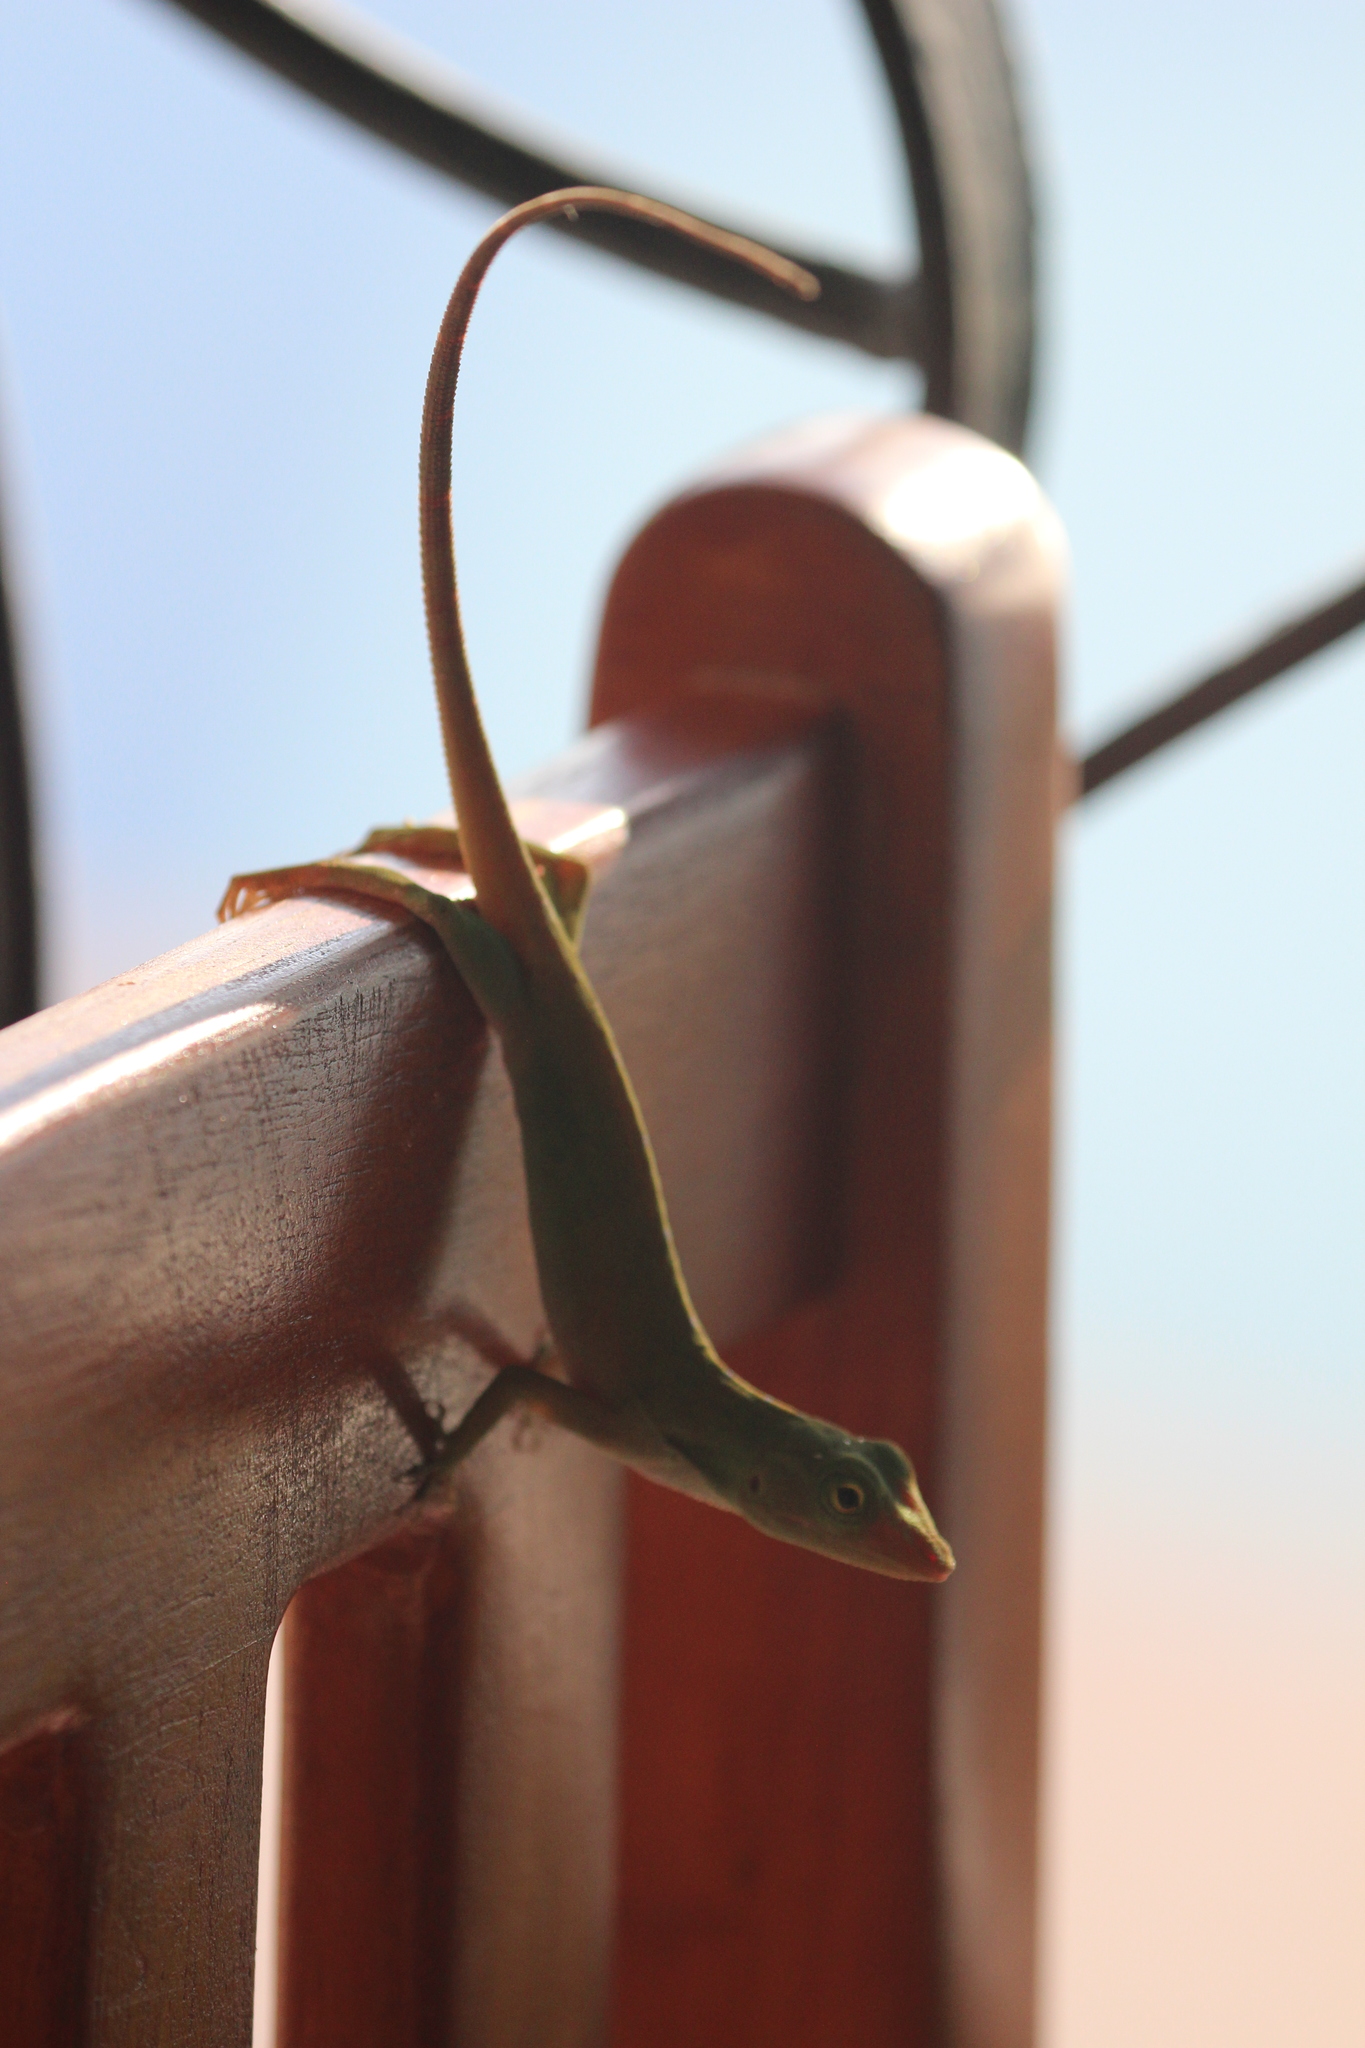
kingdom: Animalia
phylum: Chordata
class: Squamata
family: Dactyloidae
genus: Anolis
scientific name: Anolis biporcatus
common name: Giant green anole
